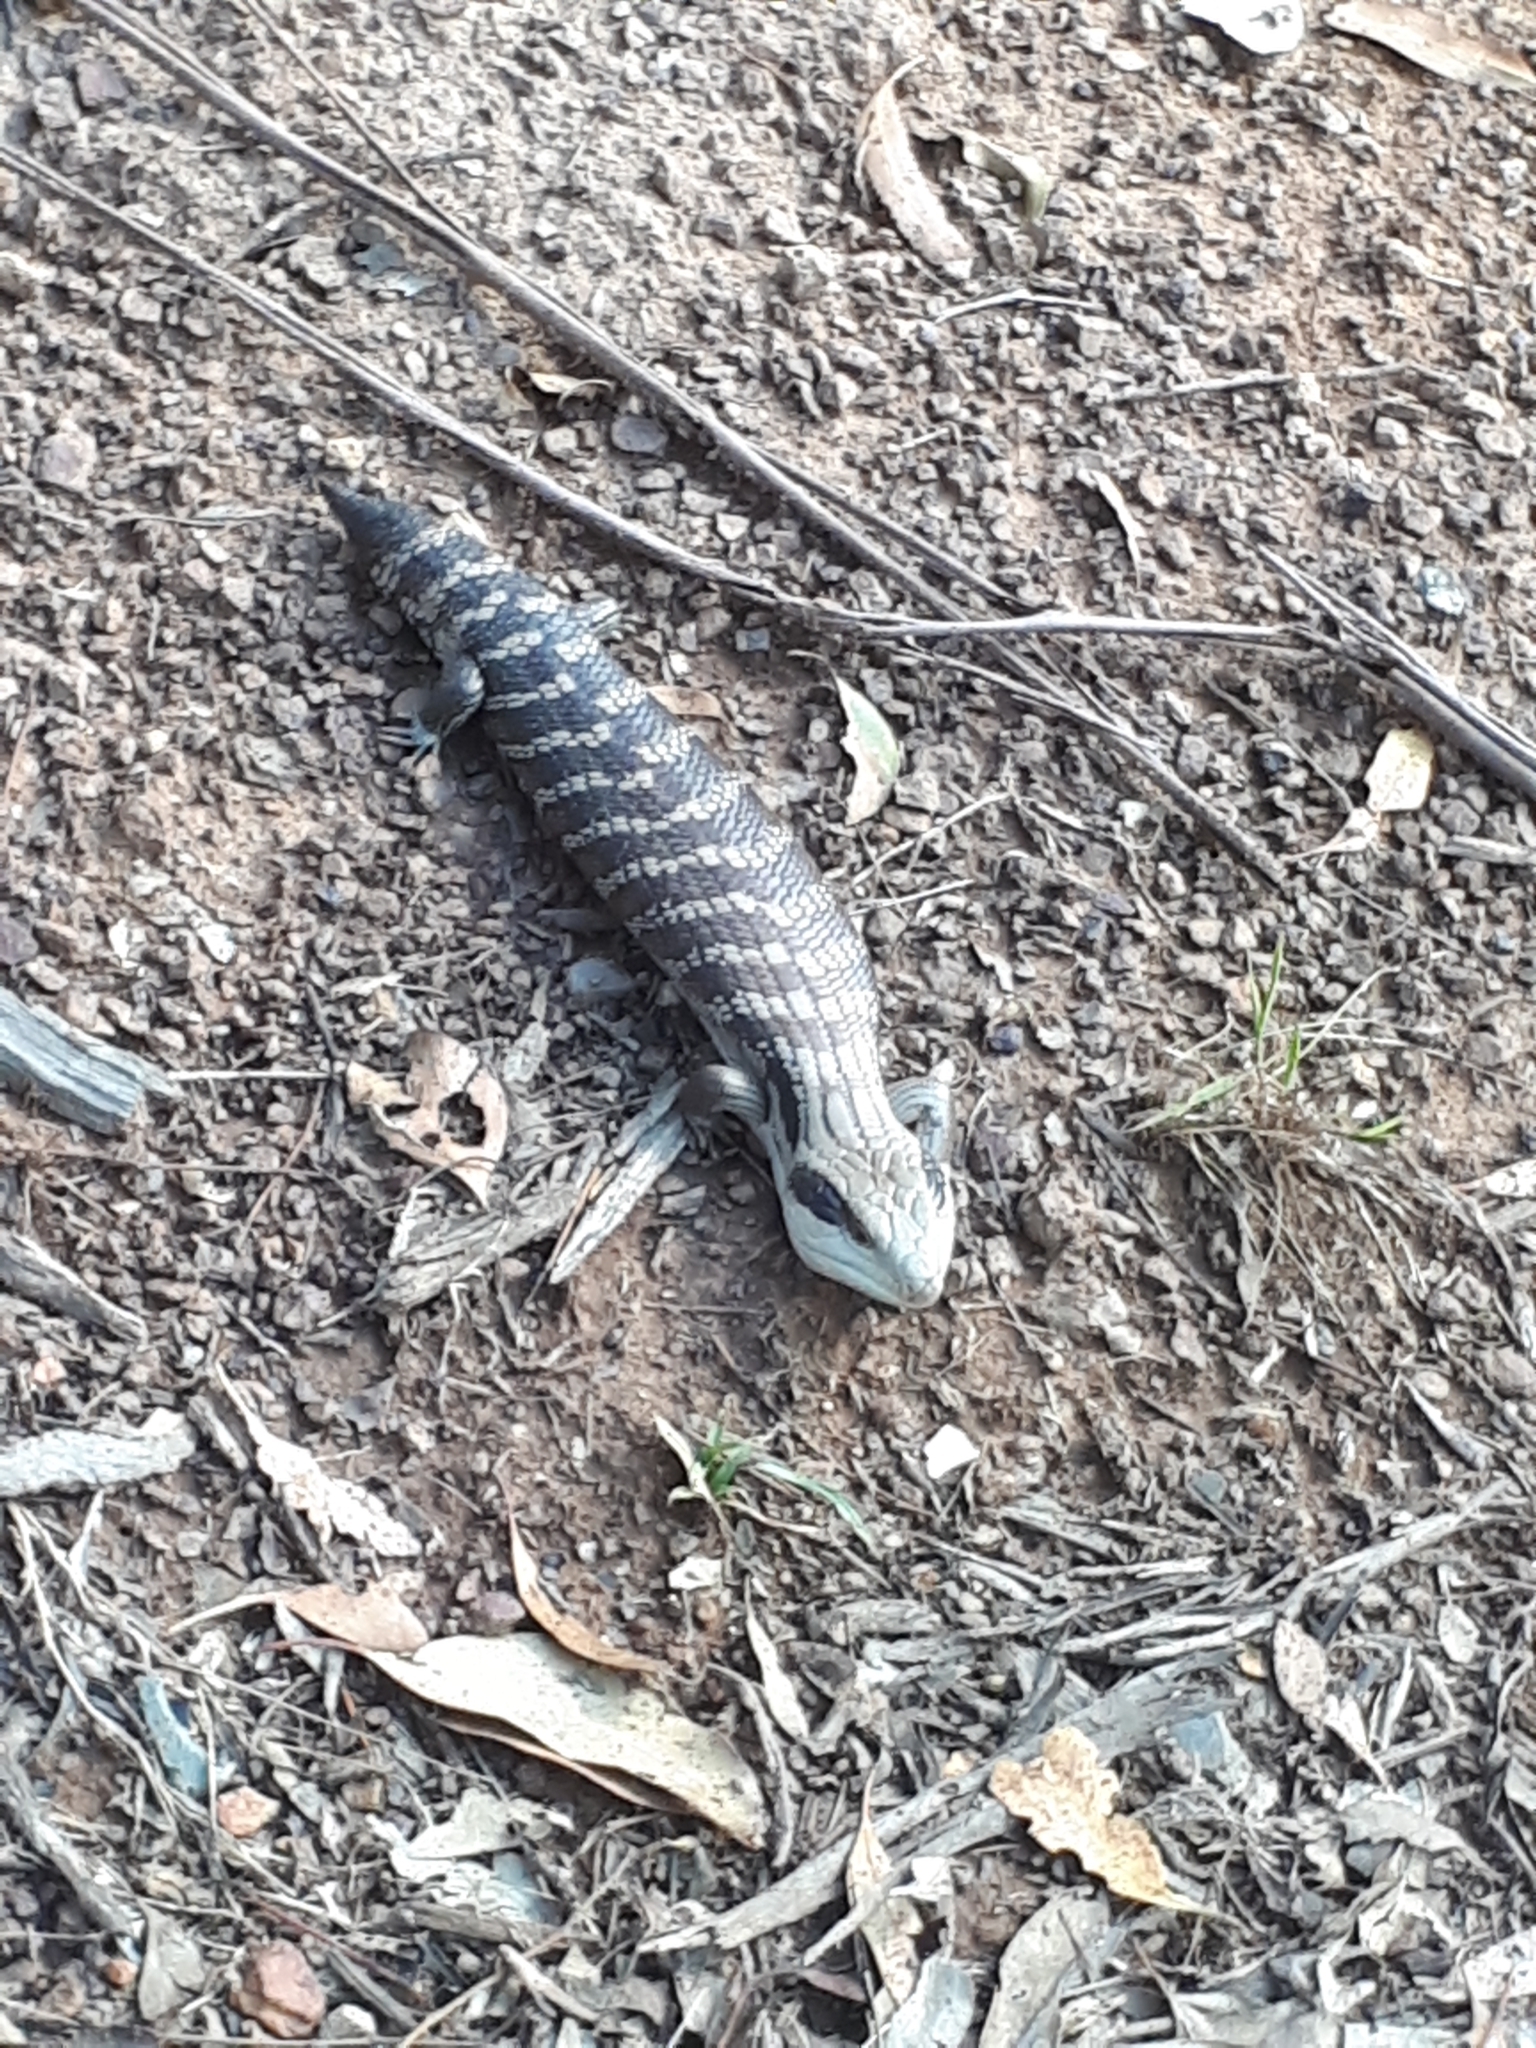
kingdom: Animalia
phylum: Chordata
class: Squamata
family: Scincidae
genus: Tiliqua
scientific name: Tiliqua scincoides
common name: Common bluetongue
